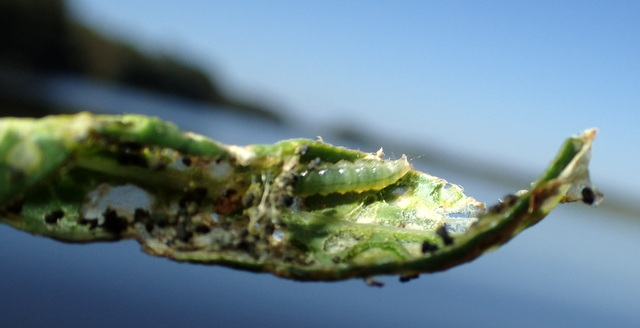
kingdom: Animalia
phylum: Arthropoda
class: Insecta
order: Coleoptera
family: Chrysomelidae
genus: Agasicles
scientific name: Agasicles hygrophila
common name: Alligatorweed flea beetle
